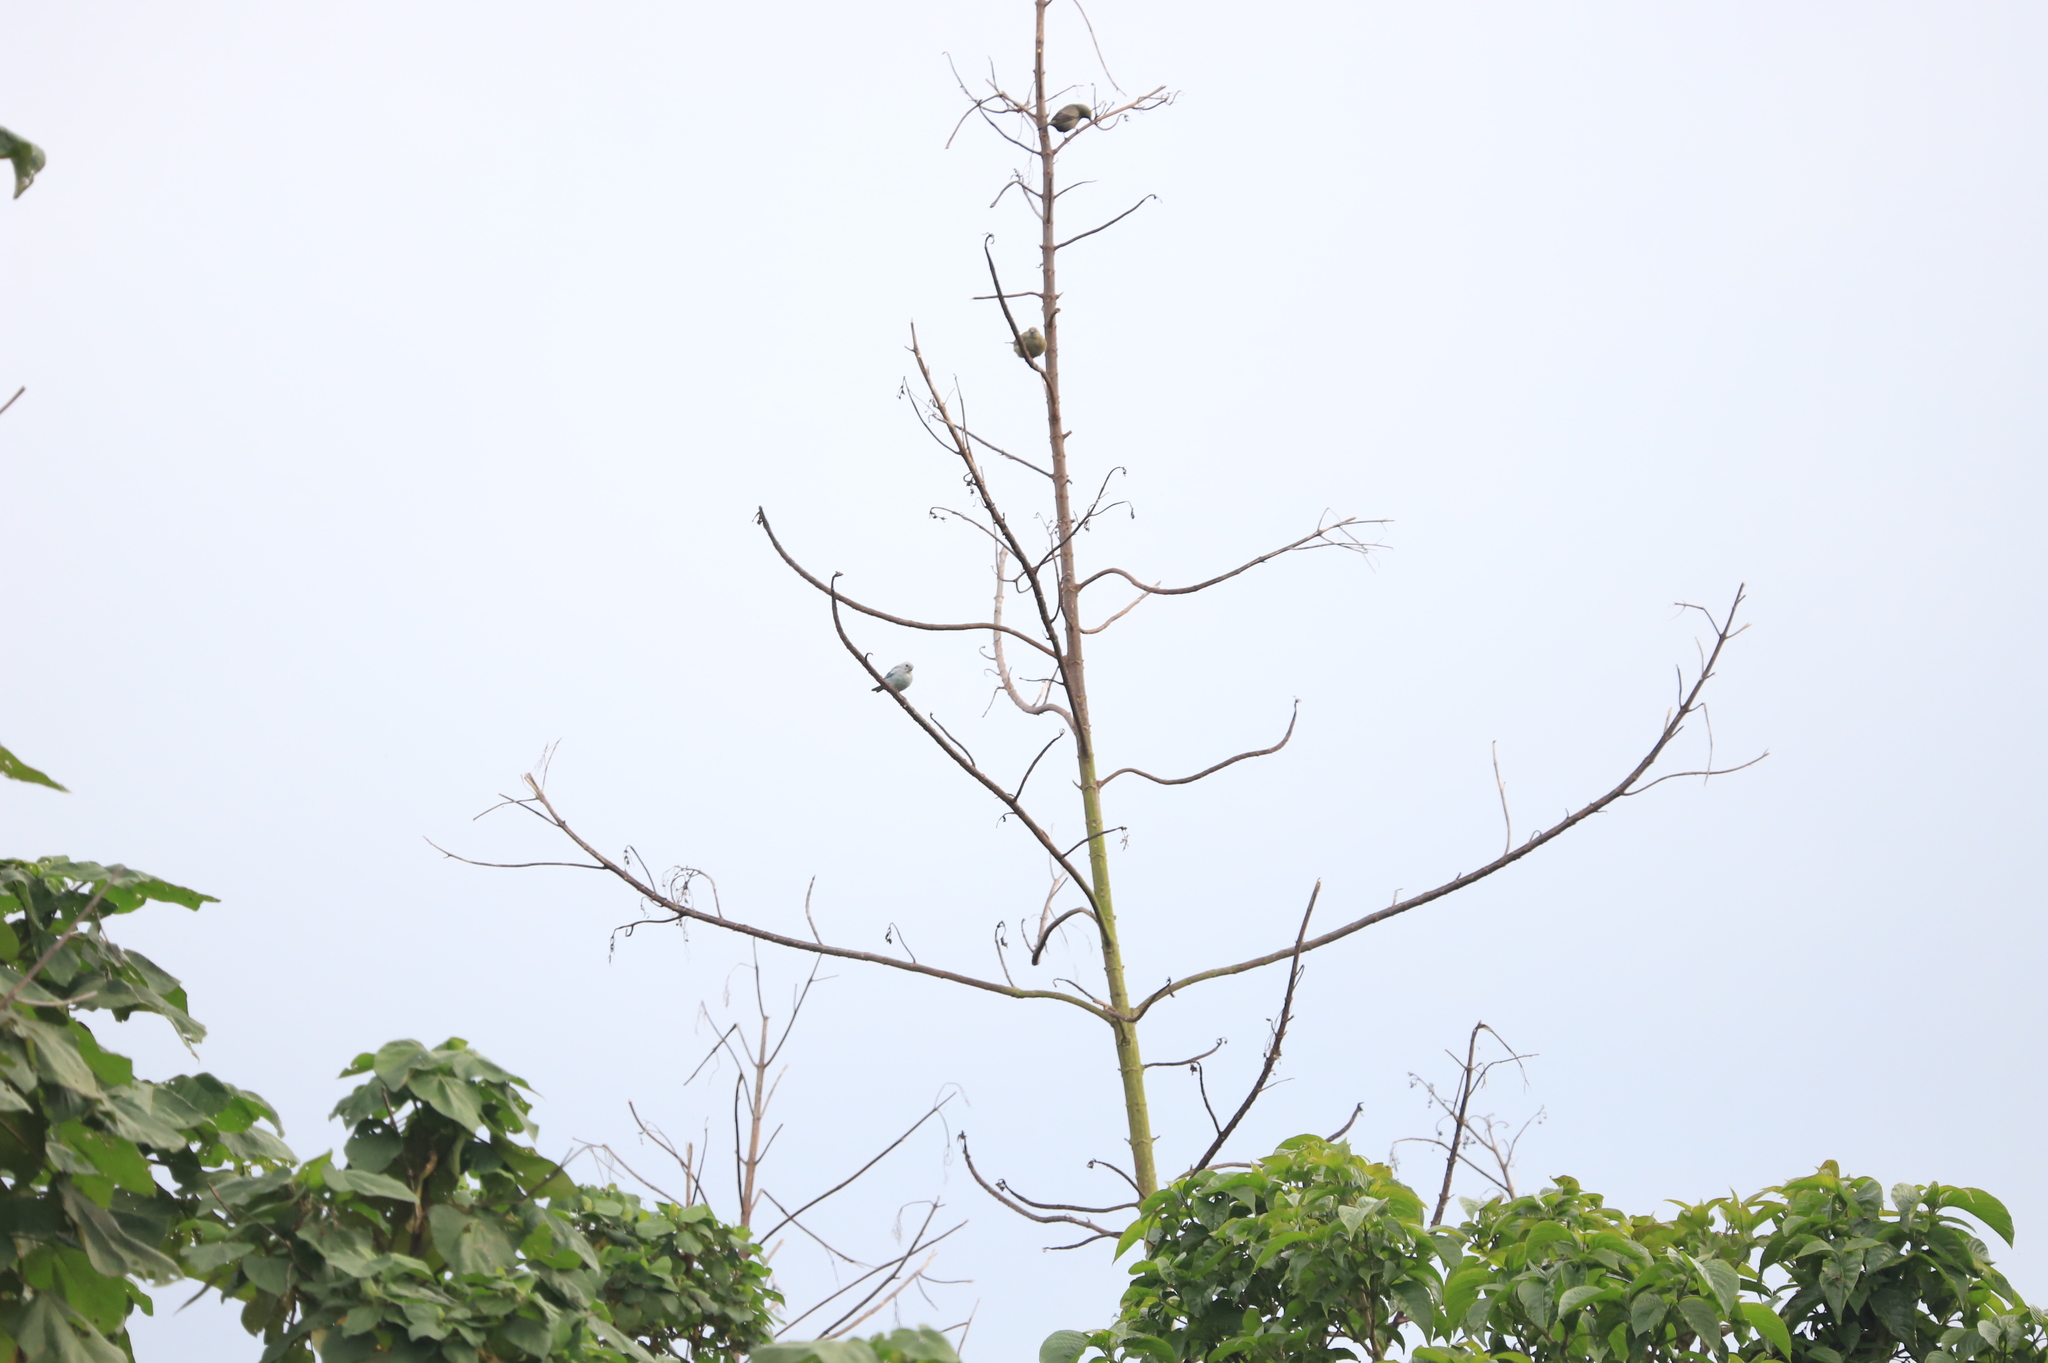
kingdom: Animalia
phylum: Chordata
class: Aves
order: Passeriformes
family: Thraupidae
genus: Thraupis
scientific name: Thraupis episcopus
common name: Blue-grey tanager
